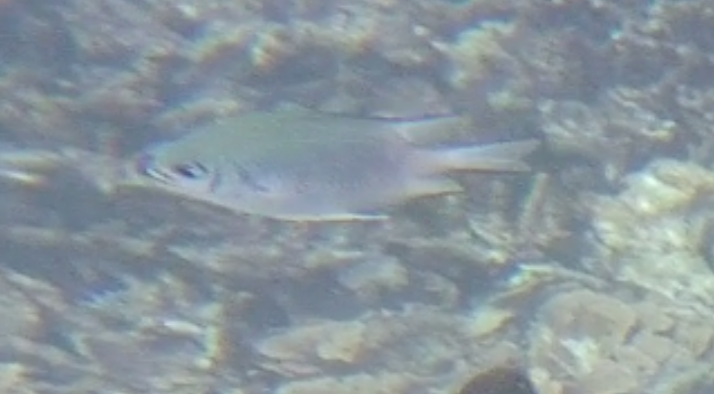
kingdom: Animalia
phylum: Chordata
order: Perciformes
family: Pomacentridae
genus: Amblyglyphidodon
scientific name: Amblyglyphidodon indicus
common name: Maldives damselfish
